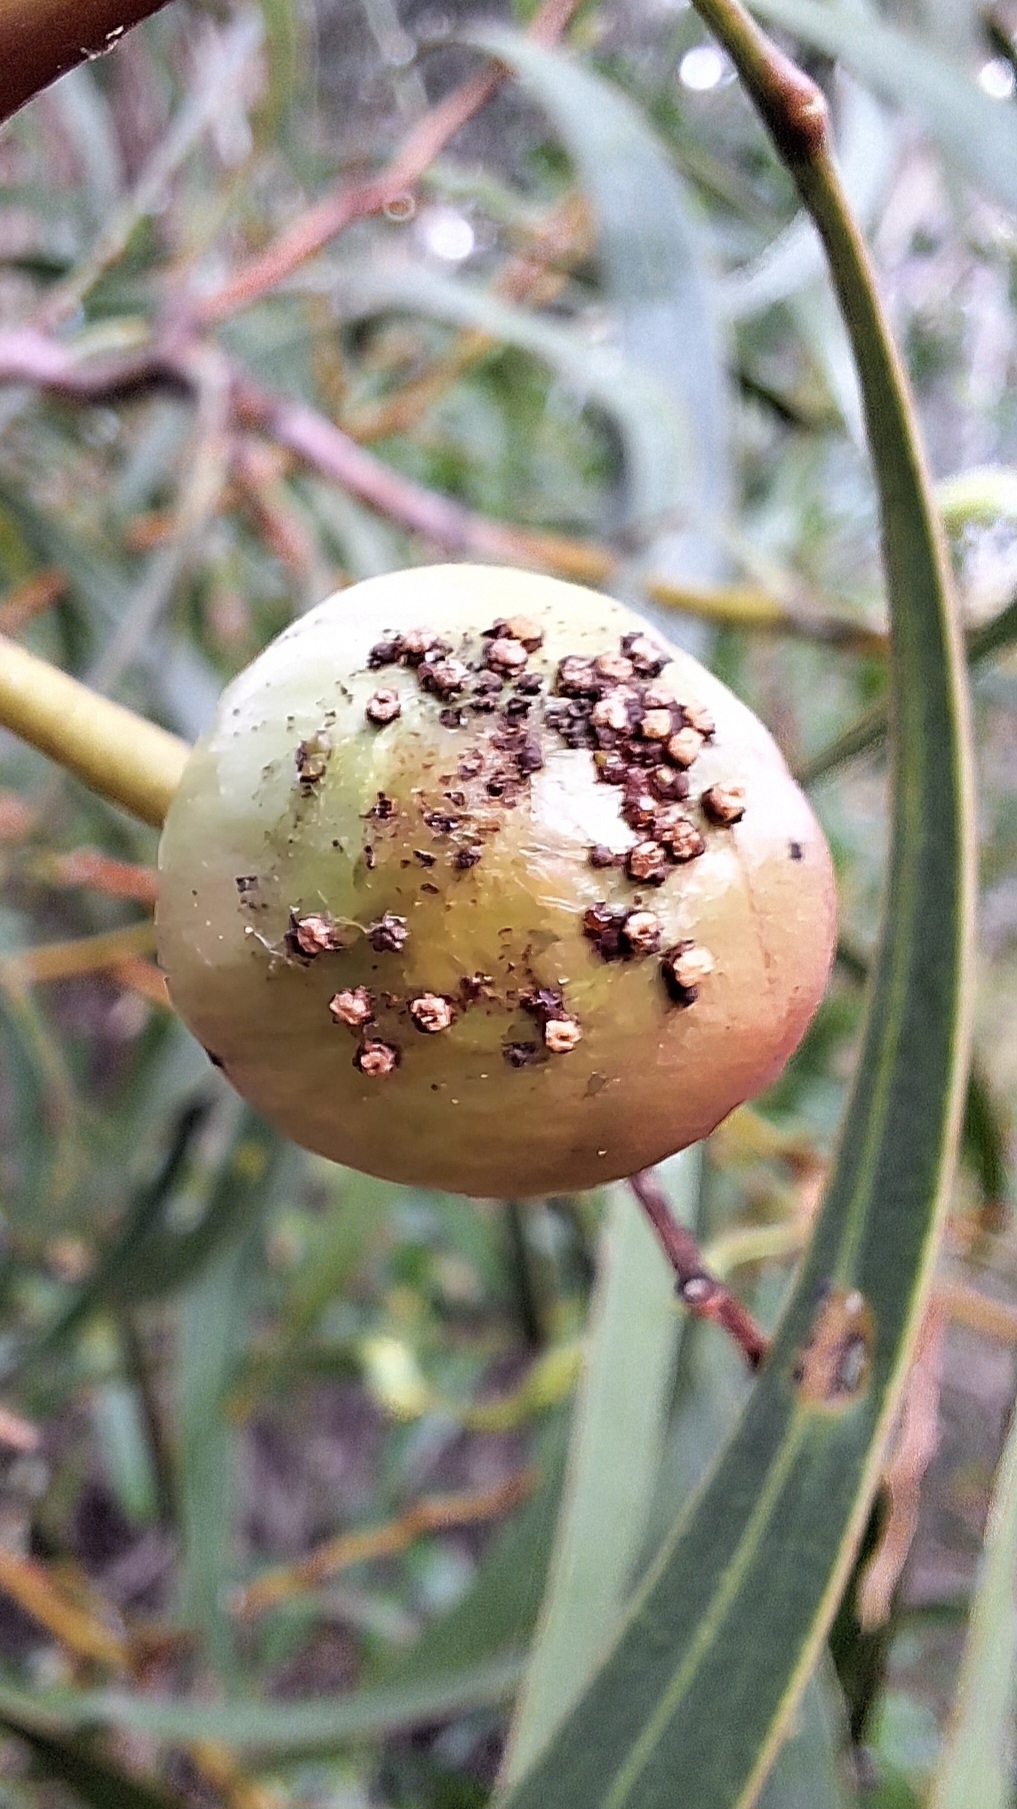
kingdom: Animalia
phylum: Arthropoda
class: Insecta
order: Hymenoptera
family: Pteromalidae
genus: Trichilogaster
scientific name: Trichilogaster signiventris
